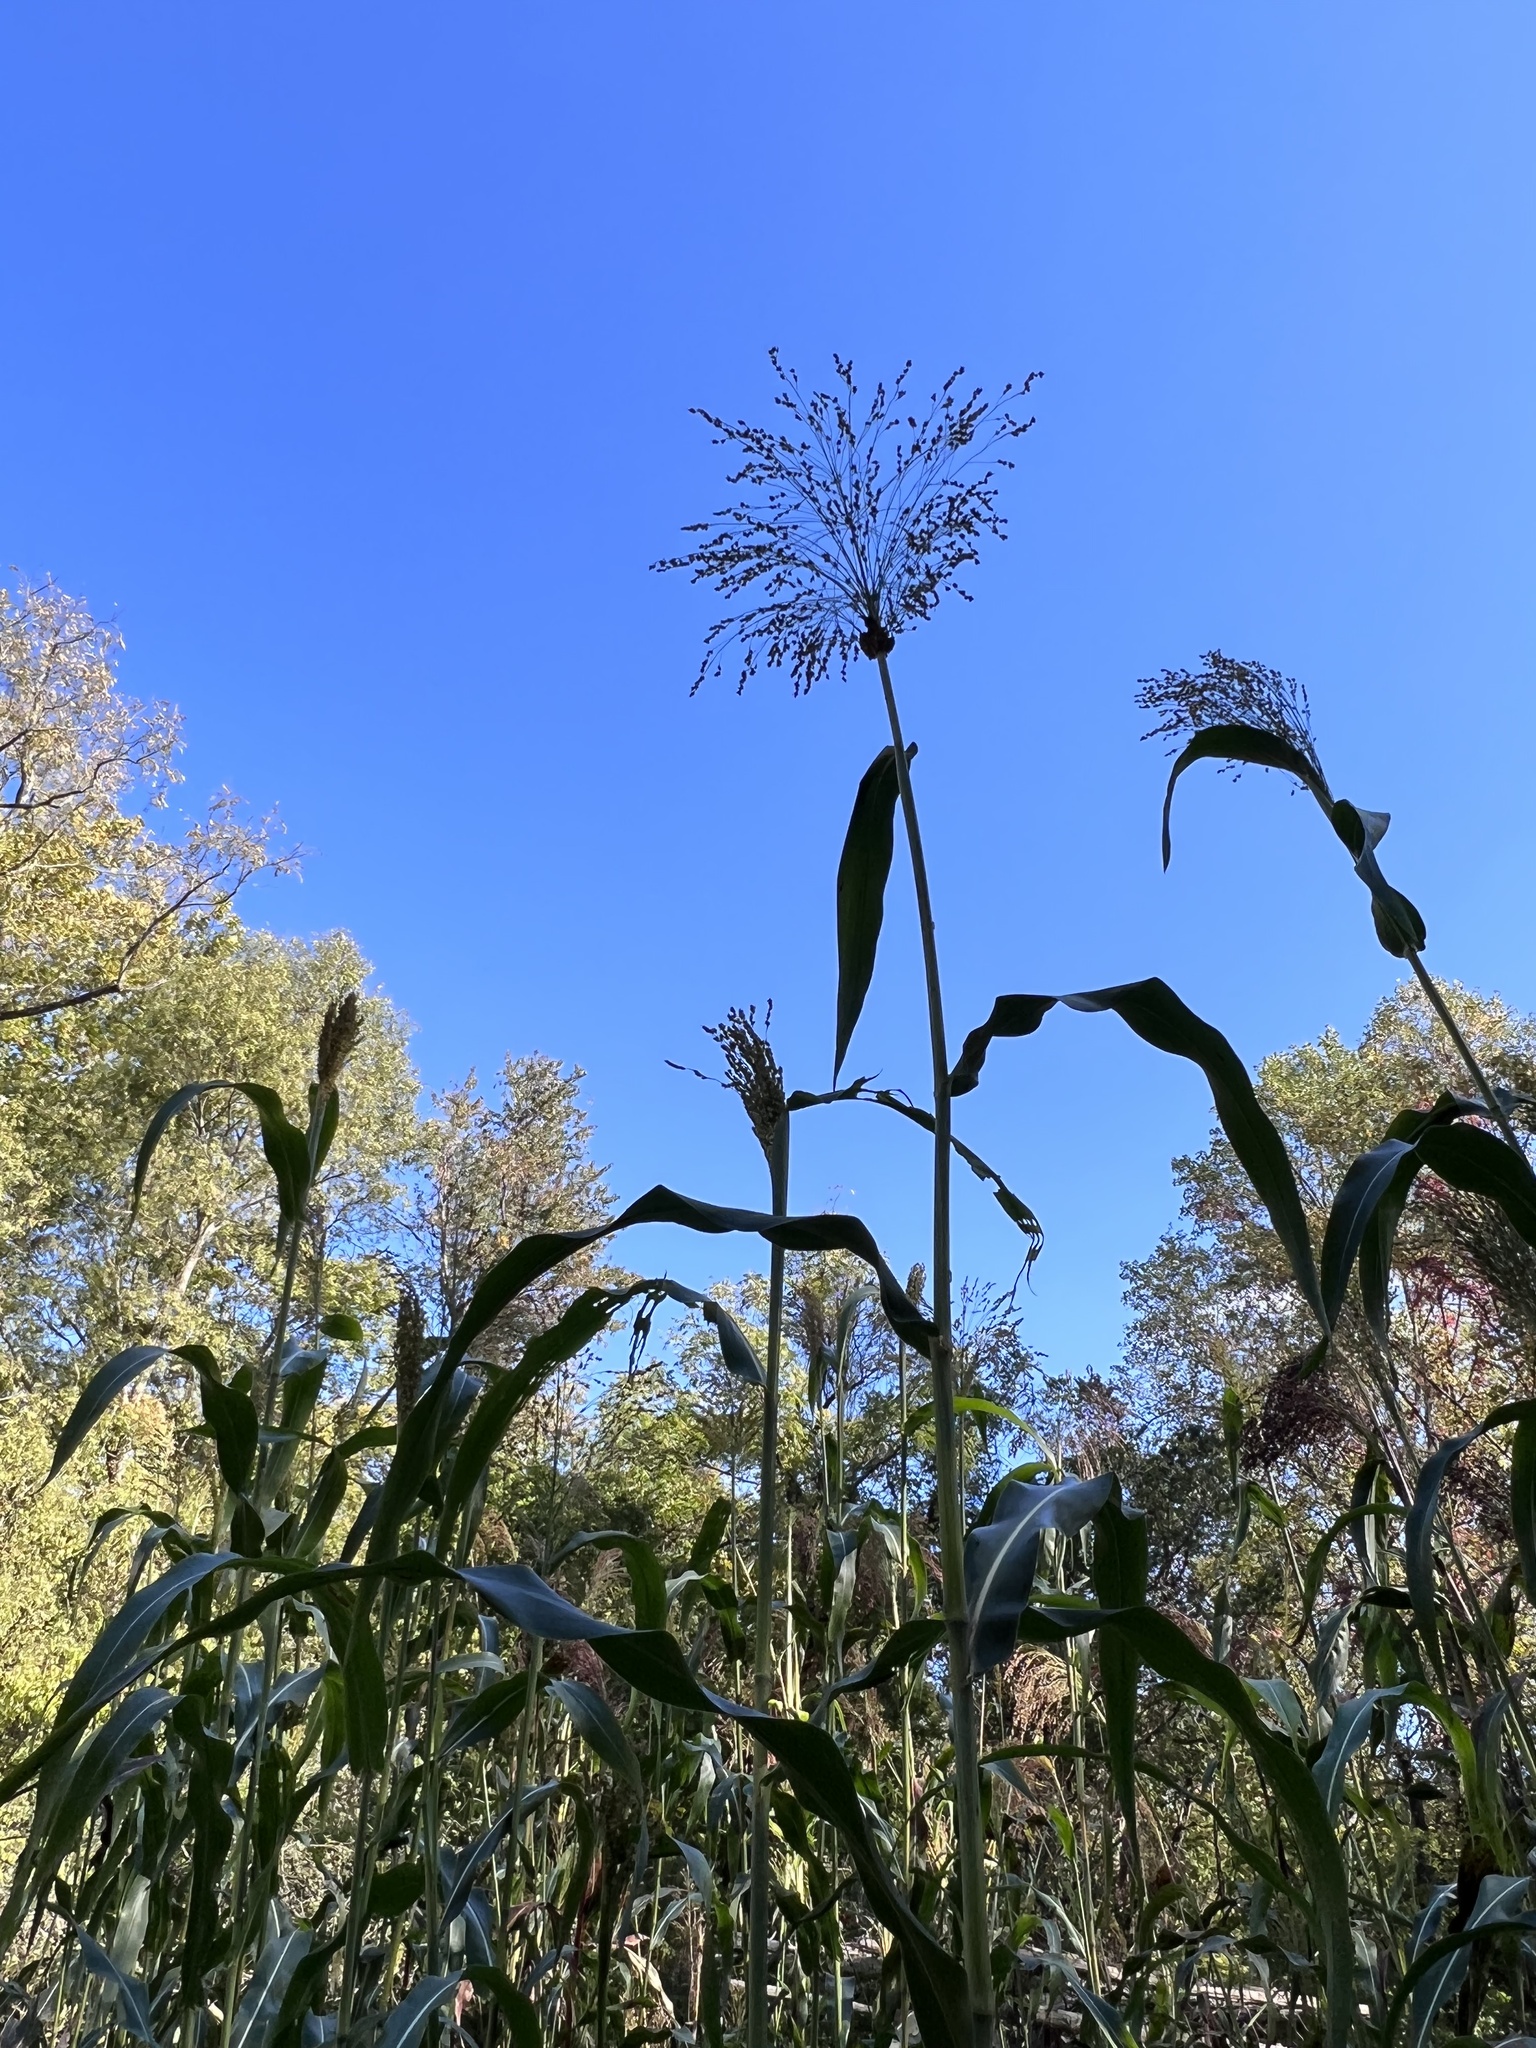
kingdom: Animalia
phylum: Arthropoda
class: Insecta
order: Lepidoptera
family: Nolidae
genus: Nola
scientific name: Nola cereella
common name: Sorghum webworm moth
